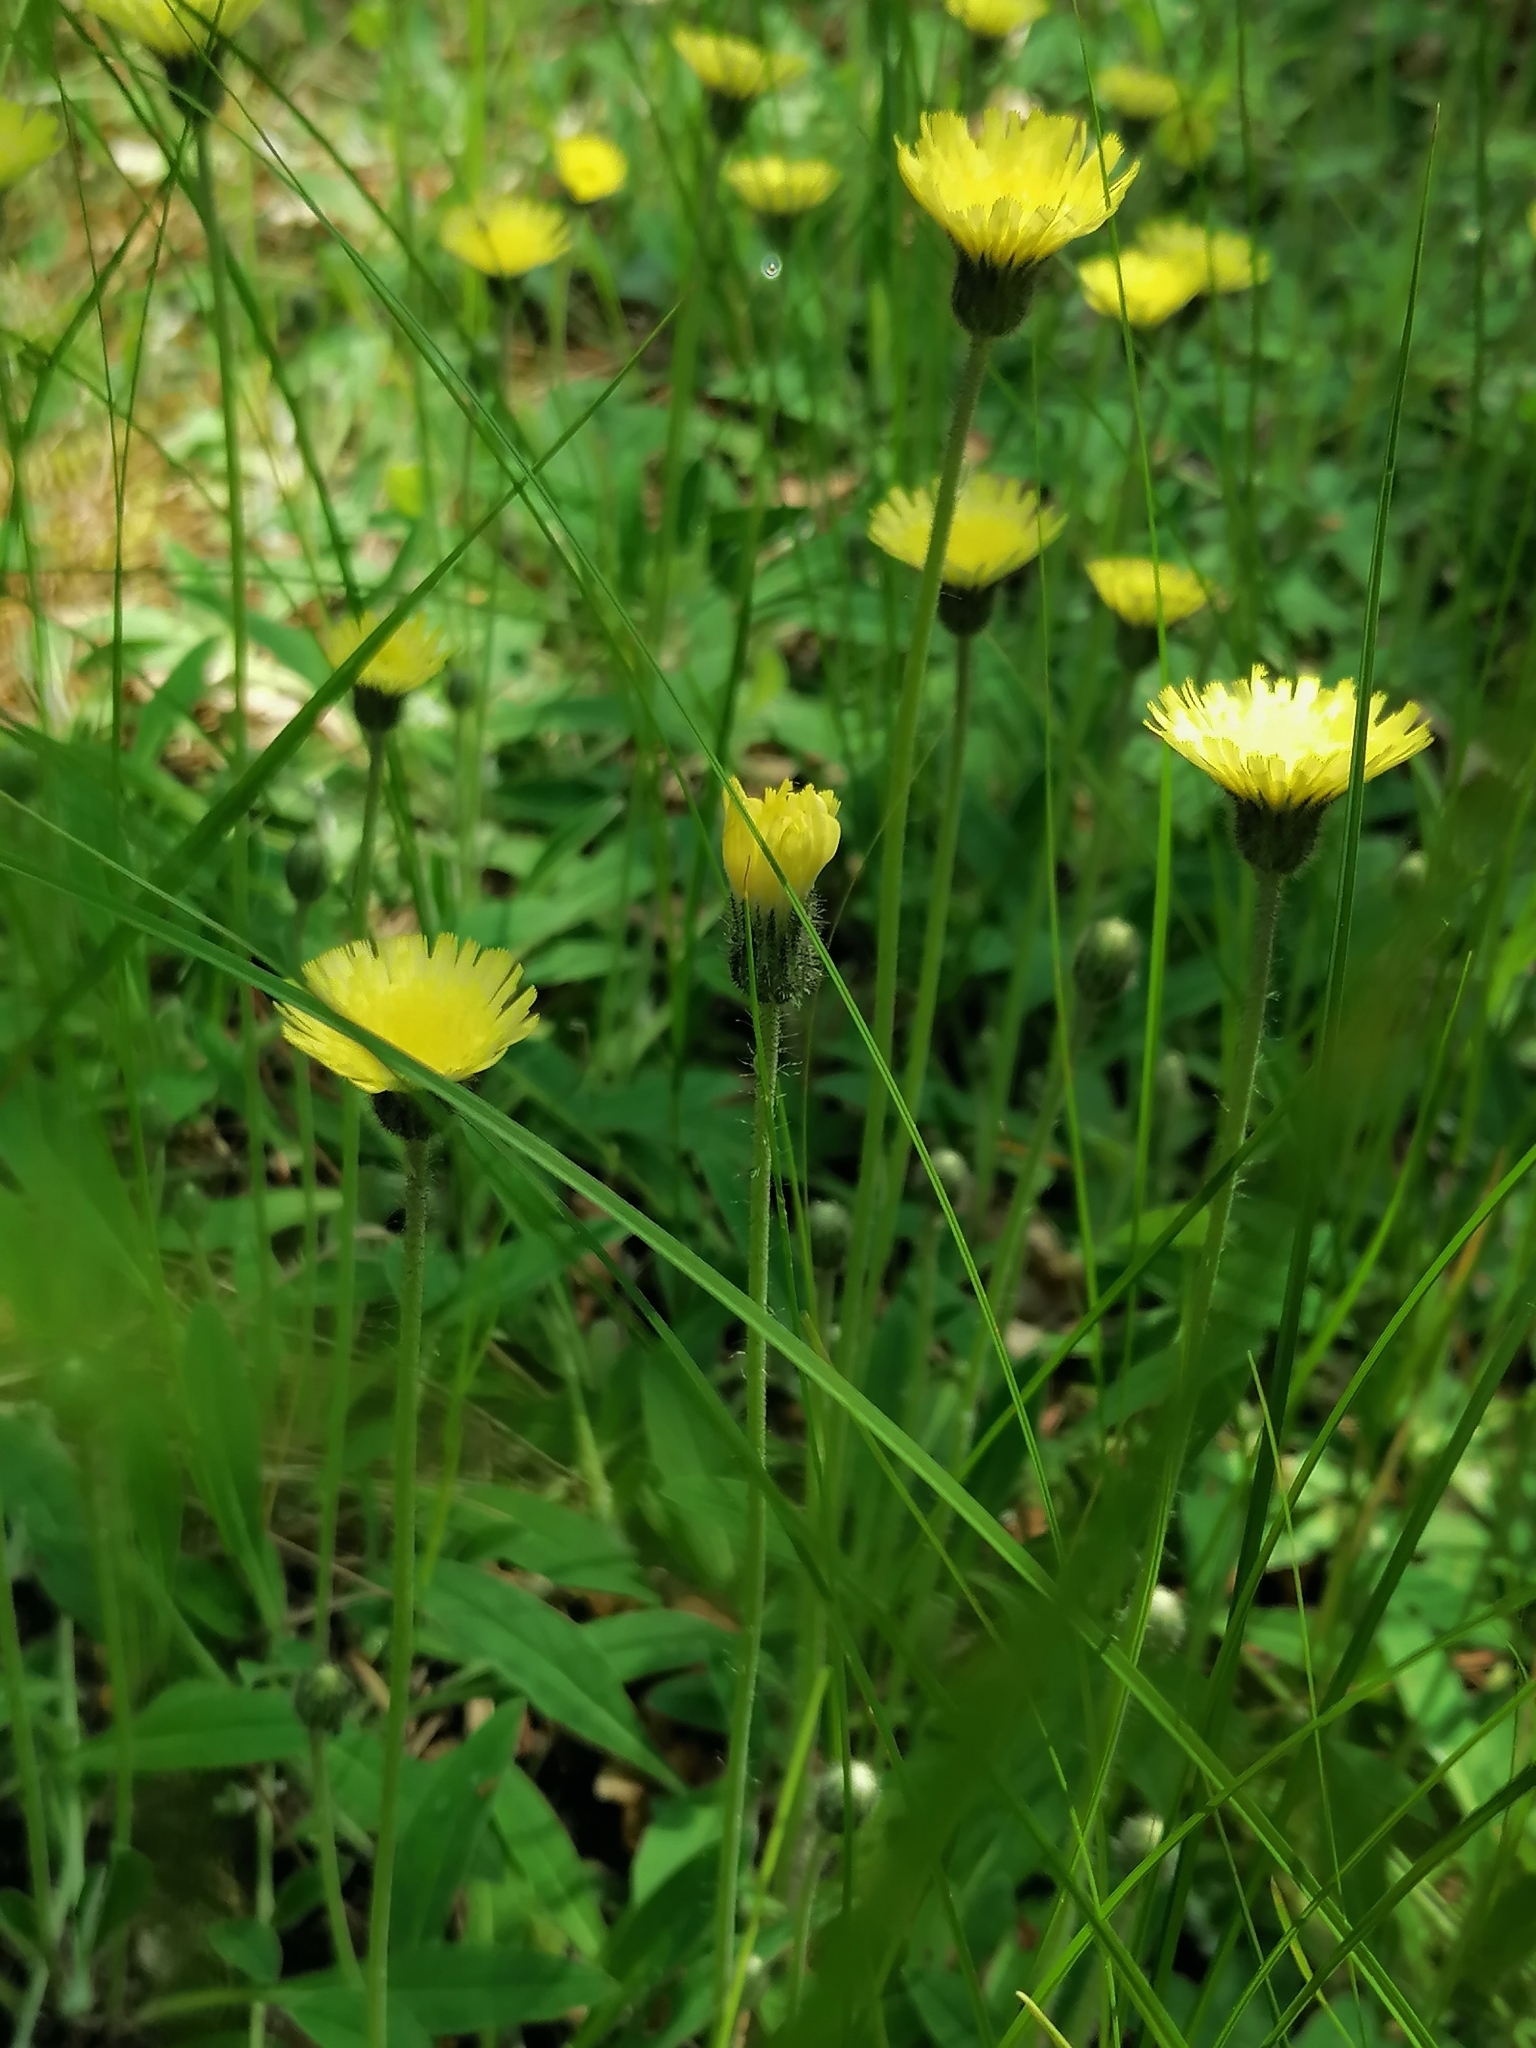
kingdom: Plantae
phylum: Tracheophyta
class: Magnoliopsida
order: Asterales
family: Asteraceae
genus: Pilosella
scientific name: Pilosella officinarum
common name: Mouse-ear hawkweed
